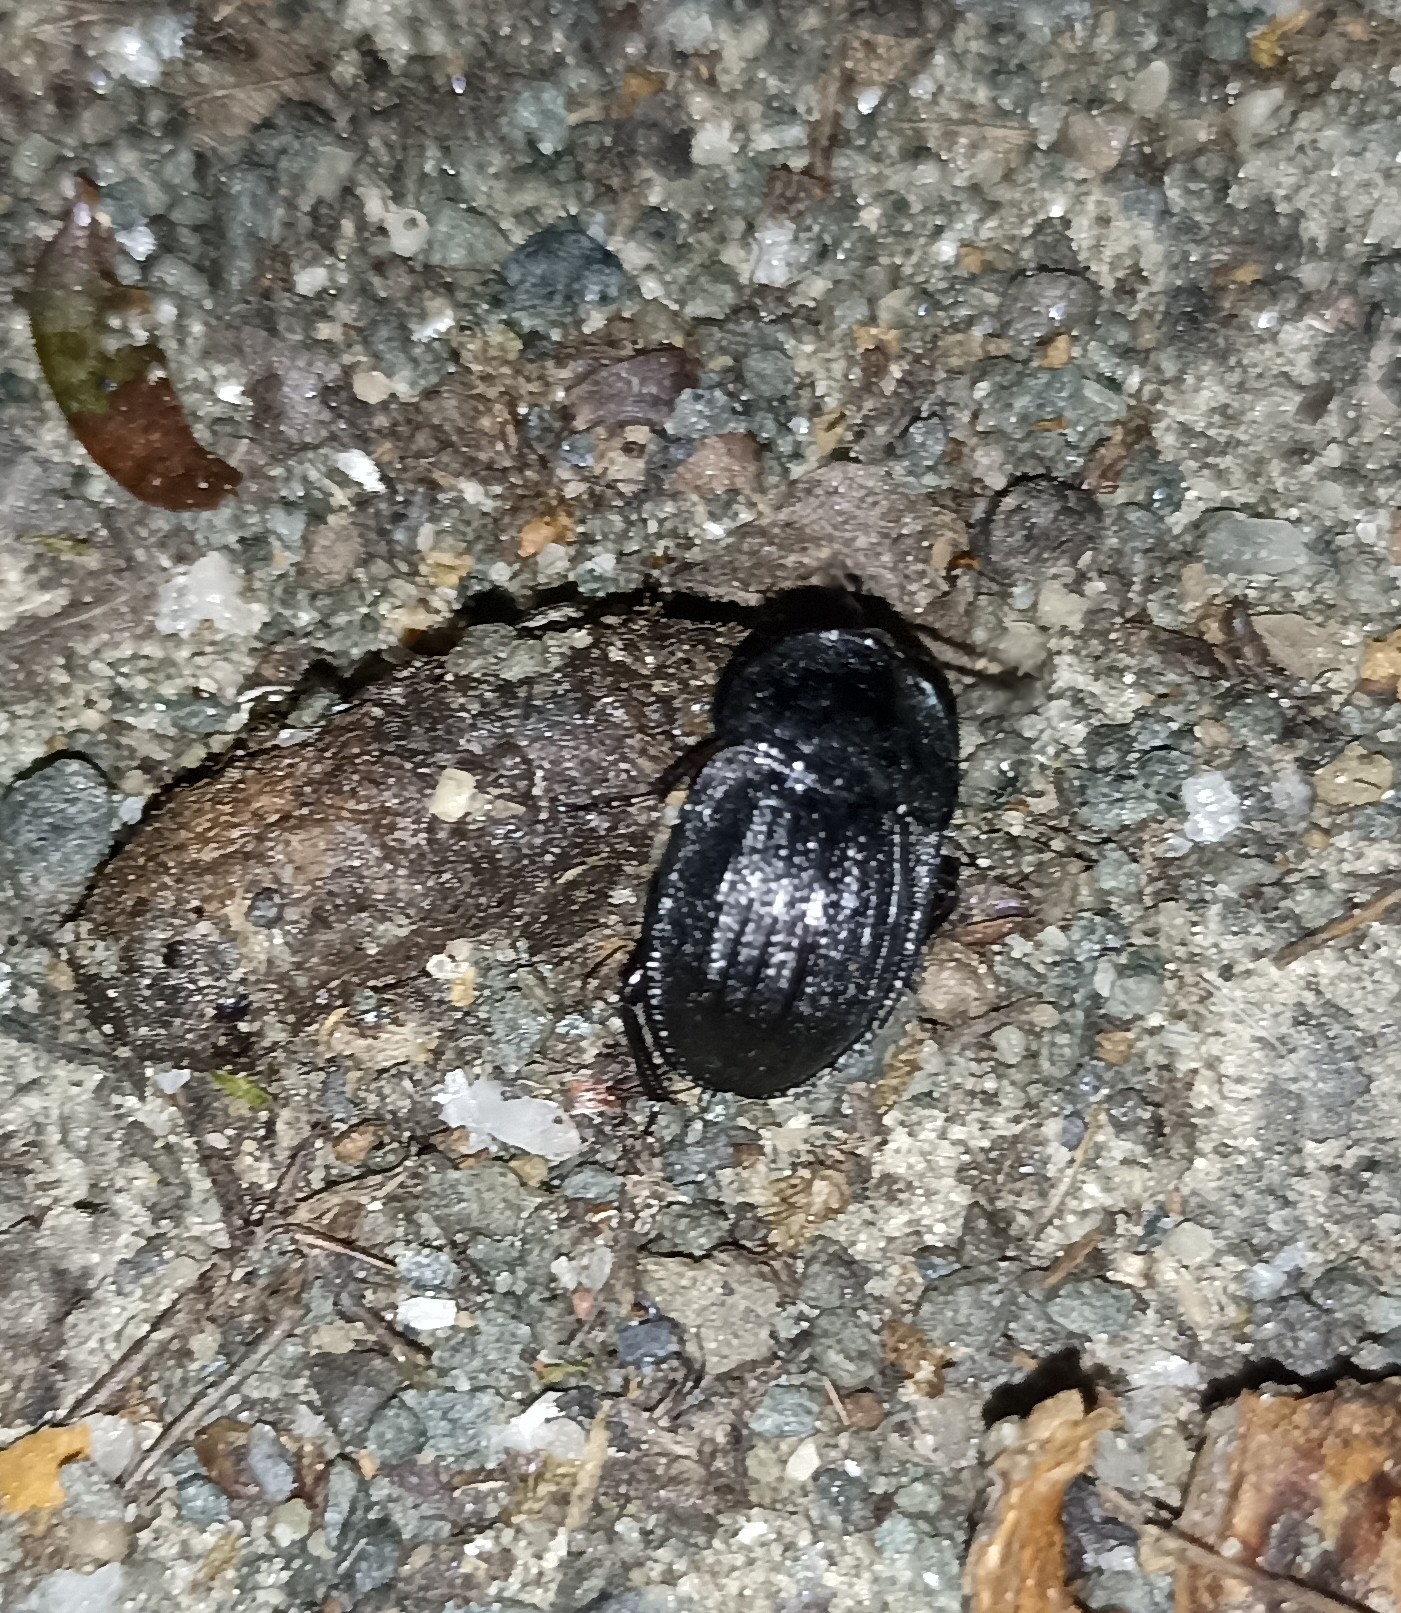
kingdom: Animalia
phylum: Arthropoda
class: Insecta
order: Coleoptera
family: Staphylinidae
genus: Silpha
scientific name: Silpha atrata
